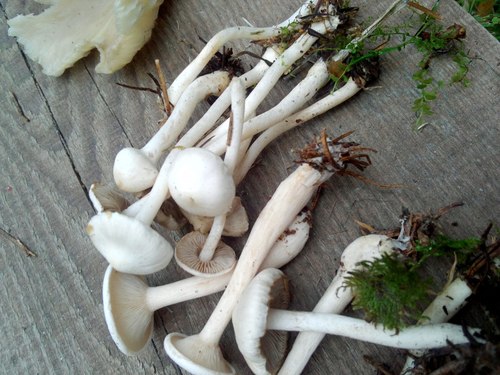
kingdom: Fungi
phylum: Basidiomycota
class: Agaricomycetes
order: Agaricales
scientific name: Agaricales
